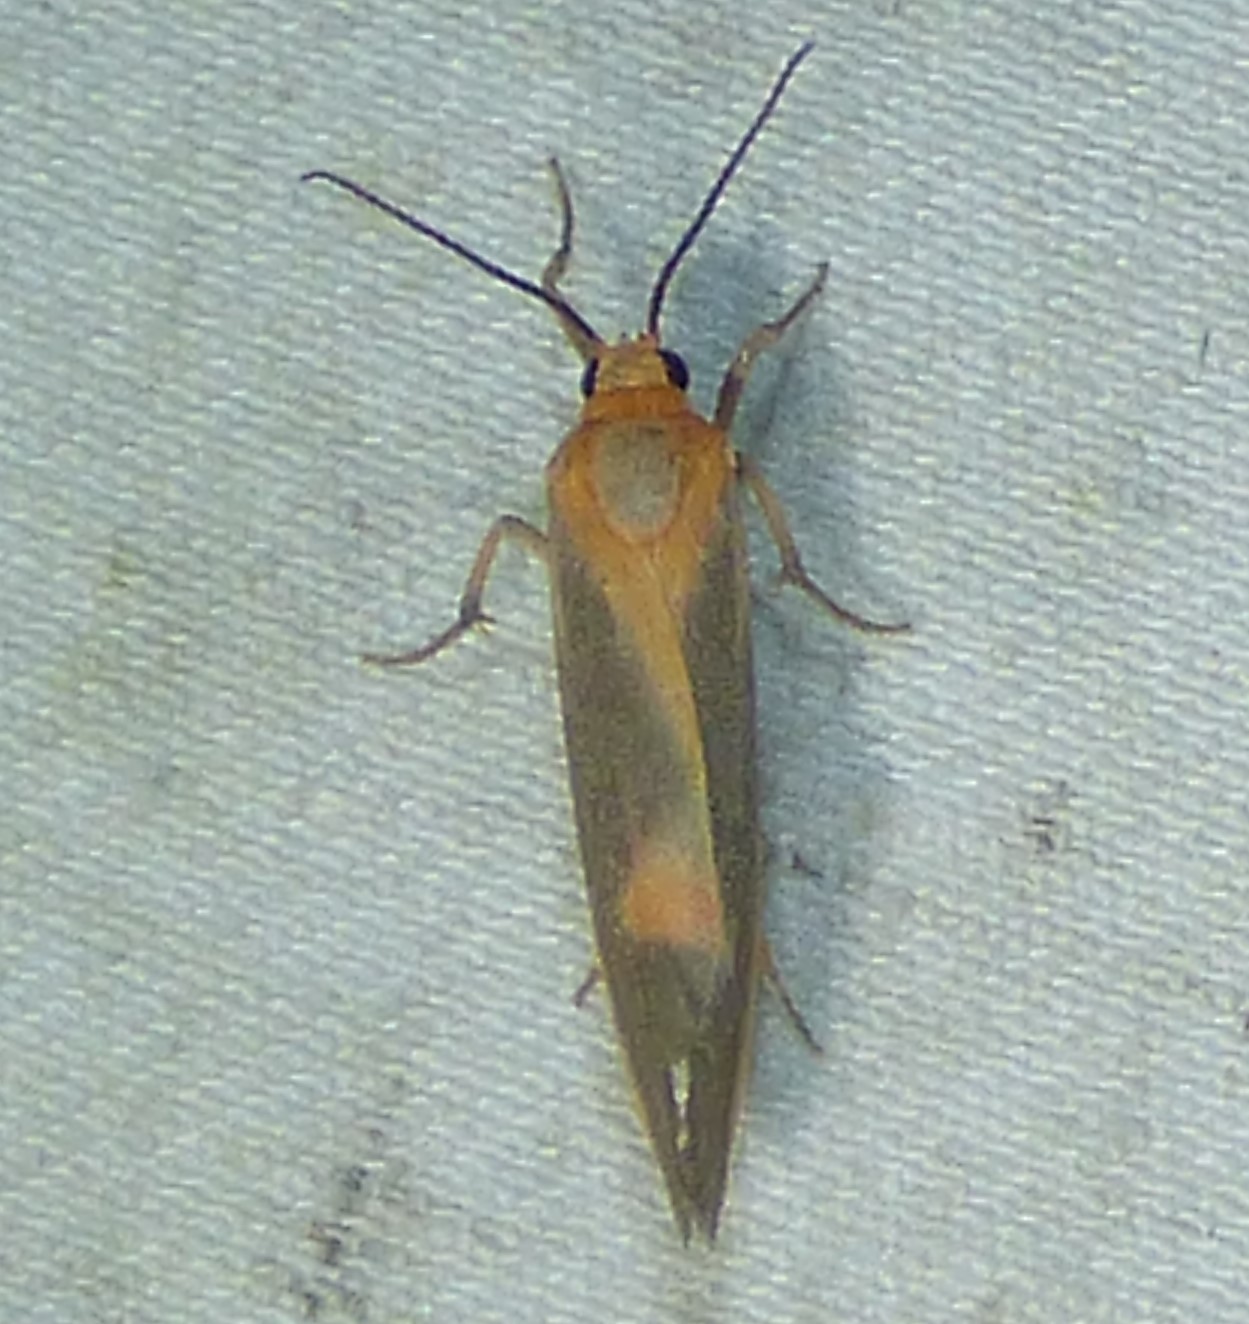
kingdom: Animalia
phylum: Arthropoda
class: Insecta
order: Lepidoptera
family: Erebidae
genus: Cisthene
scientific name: Cisthene plumbea
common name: Lead colored lichen moth
